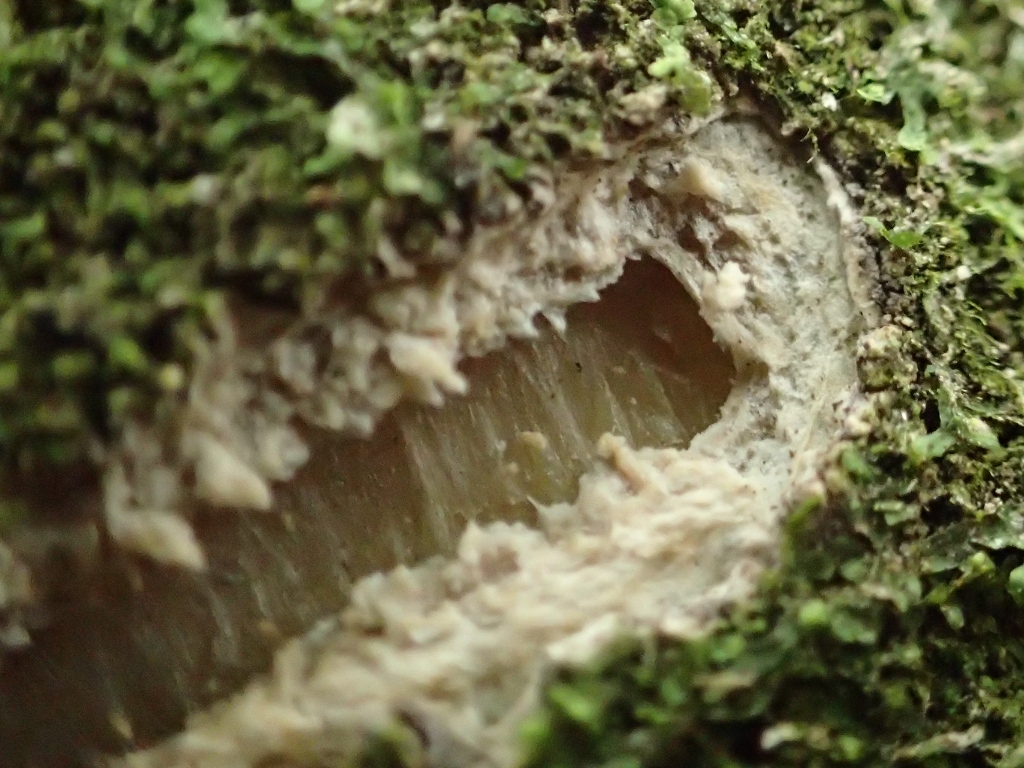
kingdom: Animalia
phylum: Chordata
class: Aves
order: Psittaciformes
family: Psittacidae
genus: Nestor
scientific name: Nestor meridionalis
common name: New zealand kaka
